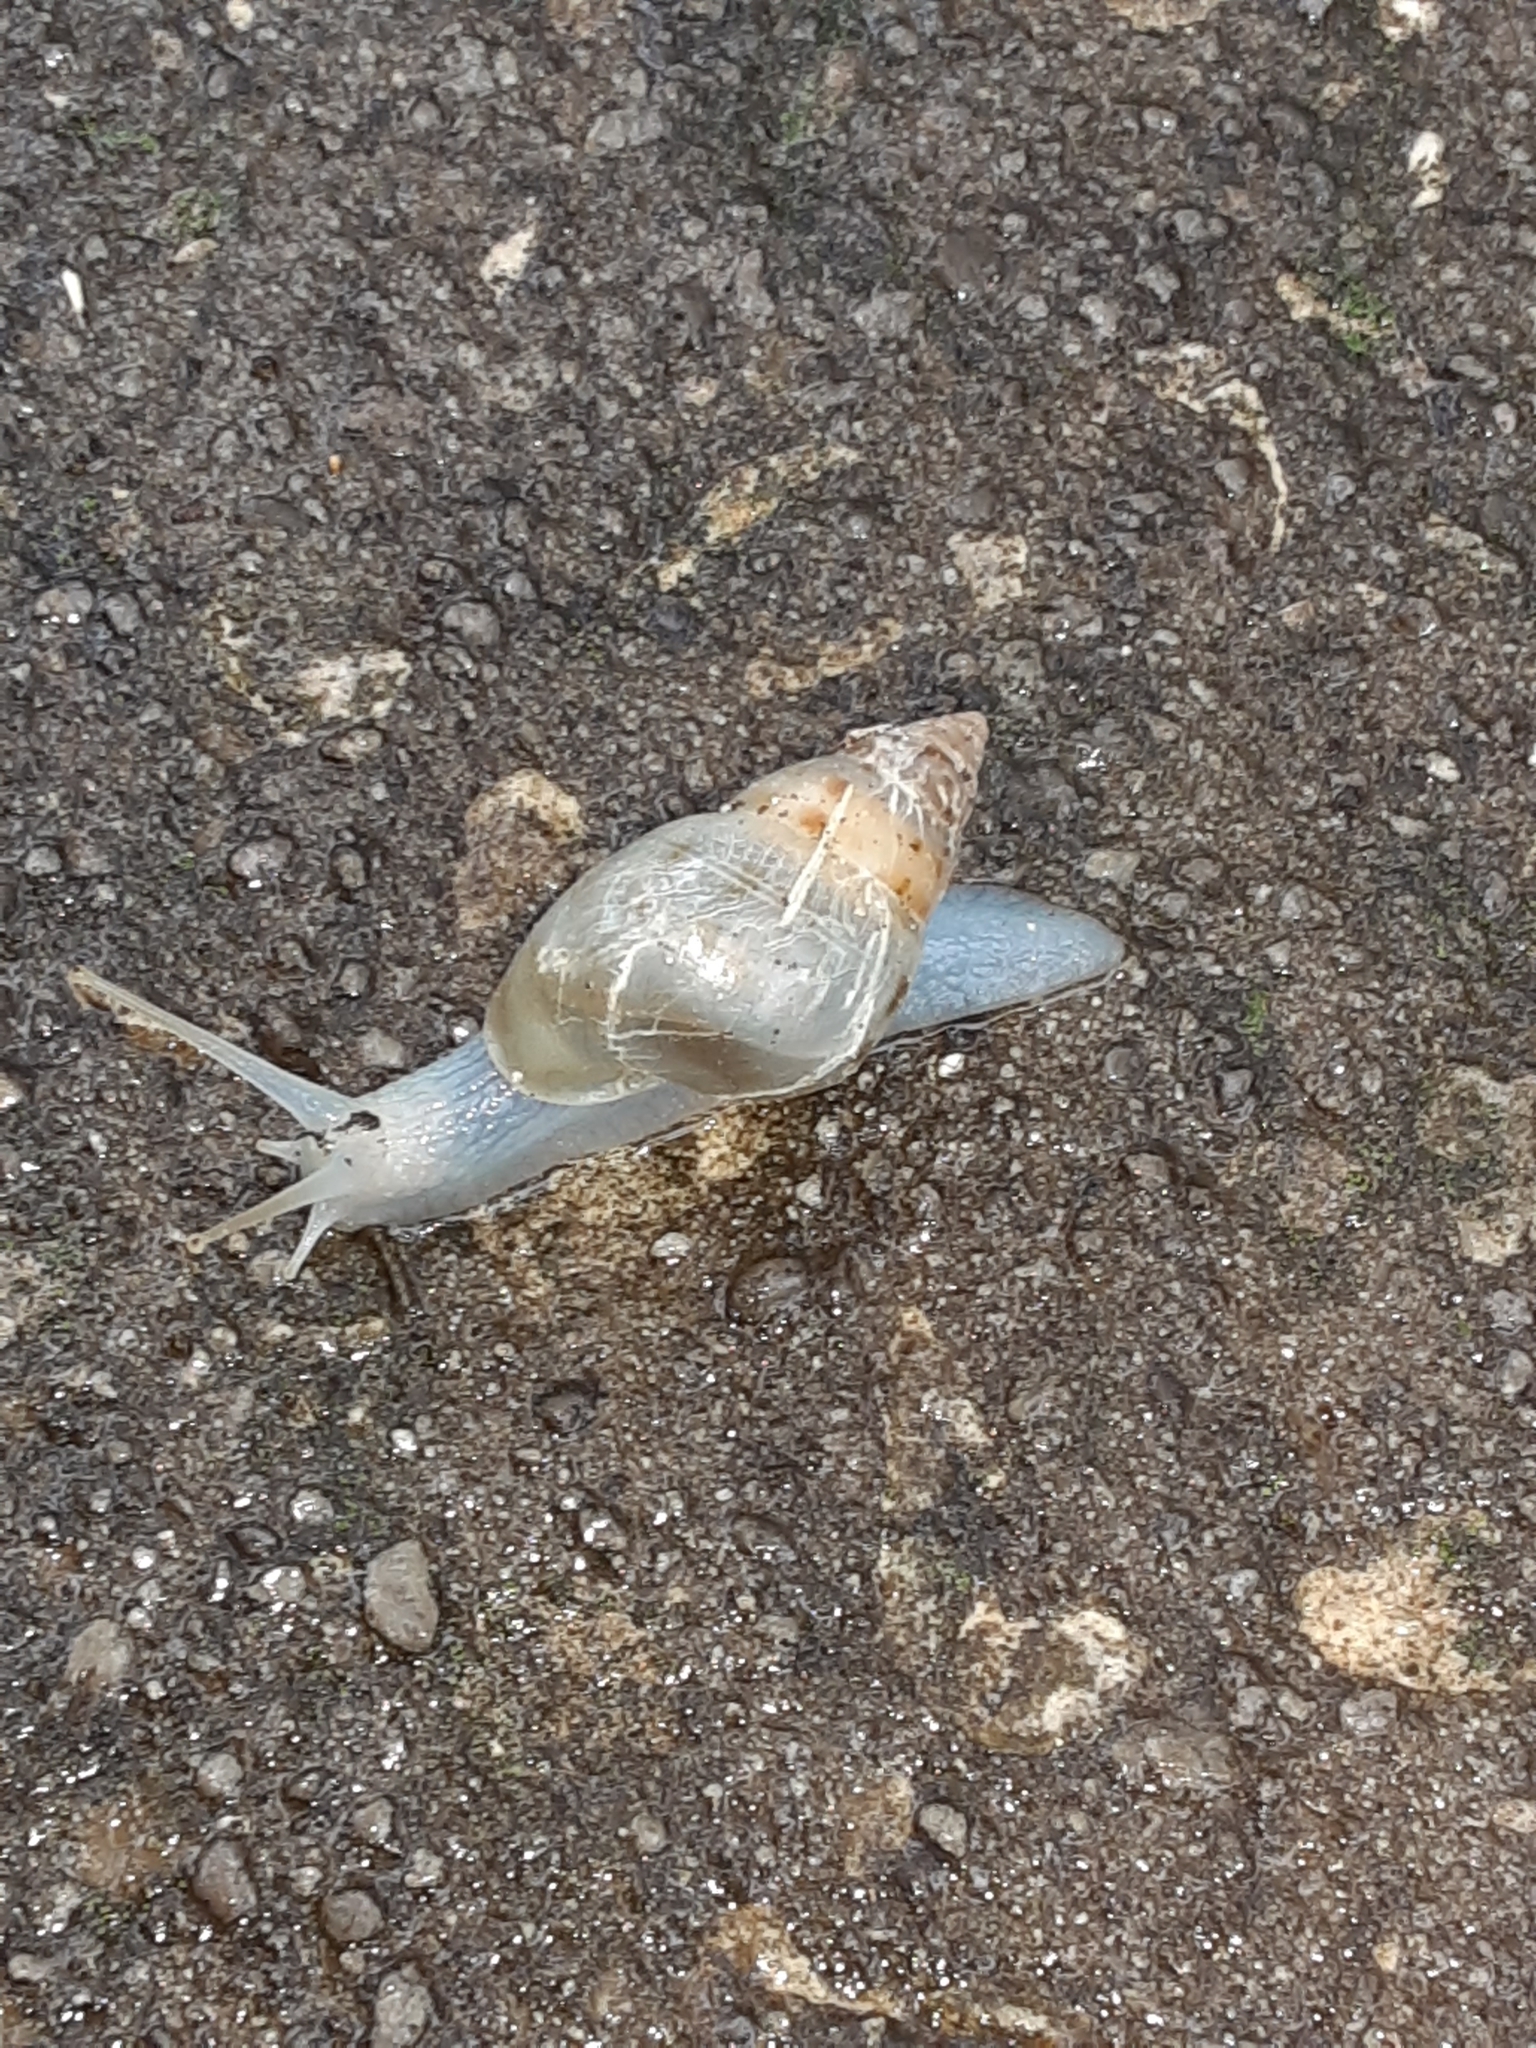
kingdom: Animalia
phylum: Mollusca
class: Gastropoda
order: Stylommatophora
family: Bulimulidae
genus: Drymaeus
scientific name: Drymaeus dormani
